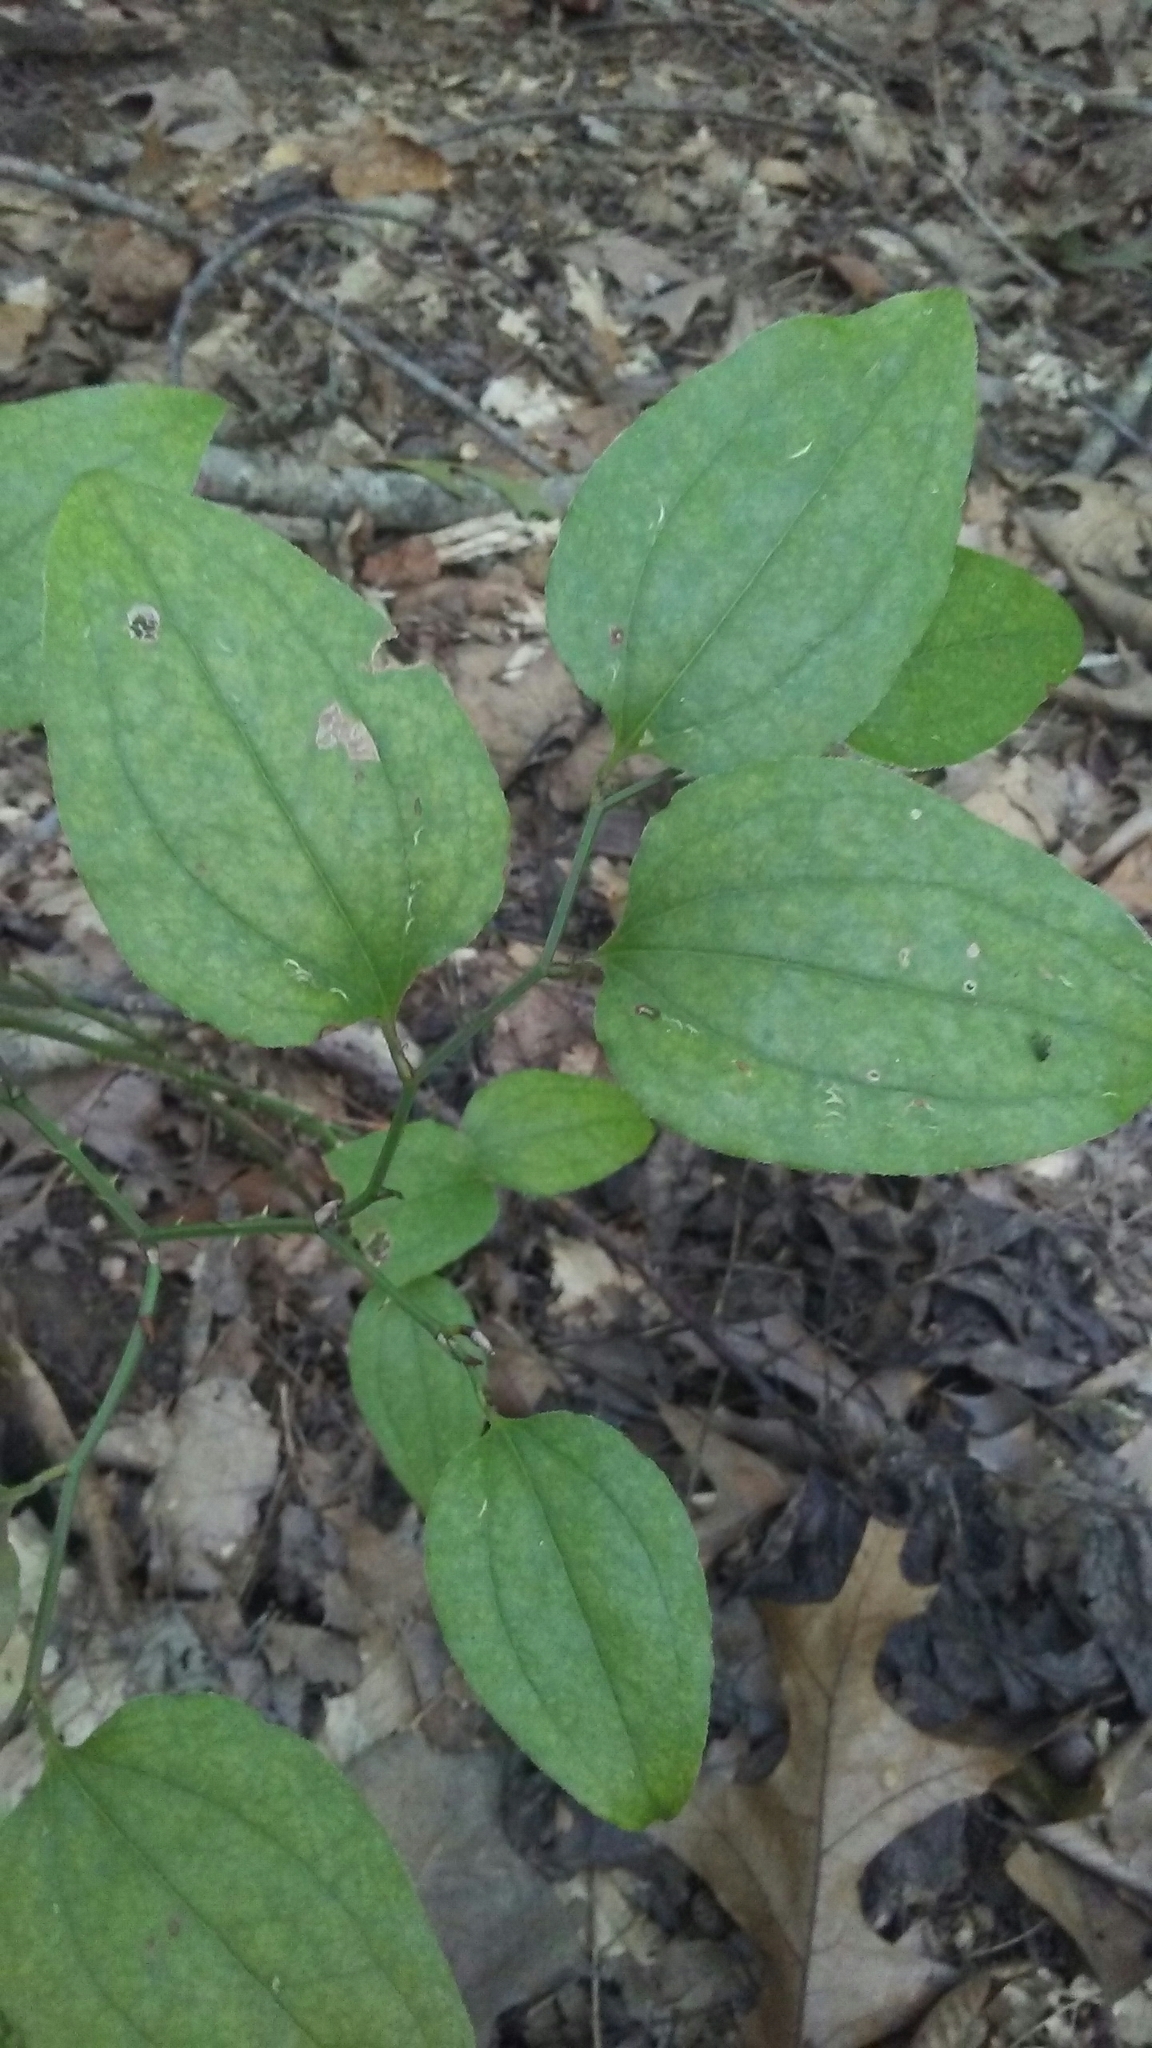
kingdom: Plantae
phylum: Tracheophyta
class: Liliopsida
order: Liliales
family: Smilacaceae
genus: Smilax
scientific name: Smilax rotundifolia
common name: Bullbriar
